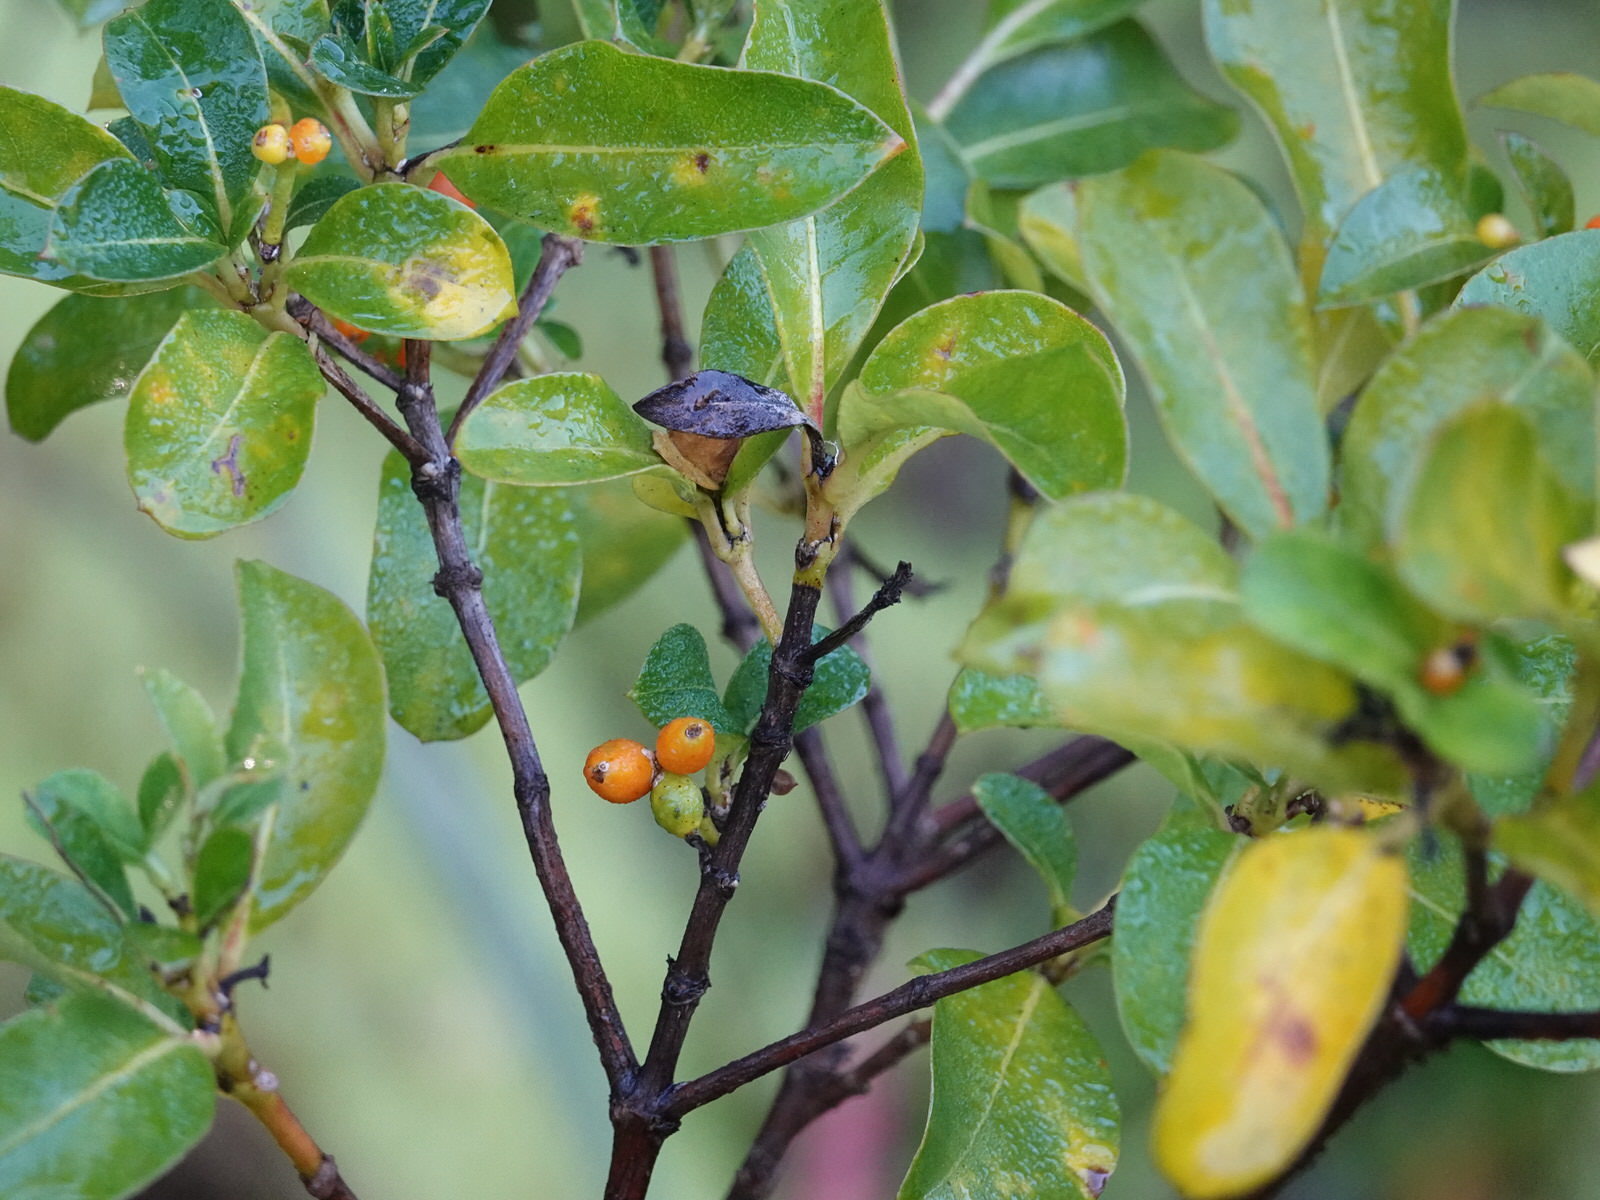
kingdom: Plantae
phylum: Tracheophyta
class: Magnoliopsida
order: Gentianales
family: Rubiaceae
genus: Coprosma
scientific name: Coprosma lucida
